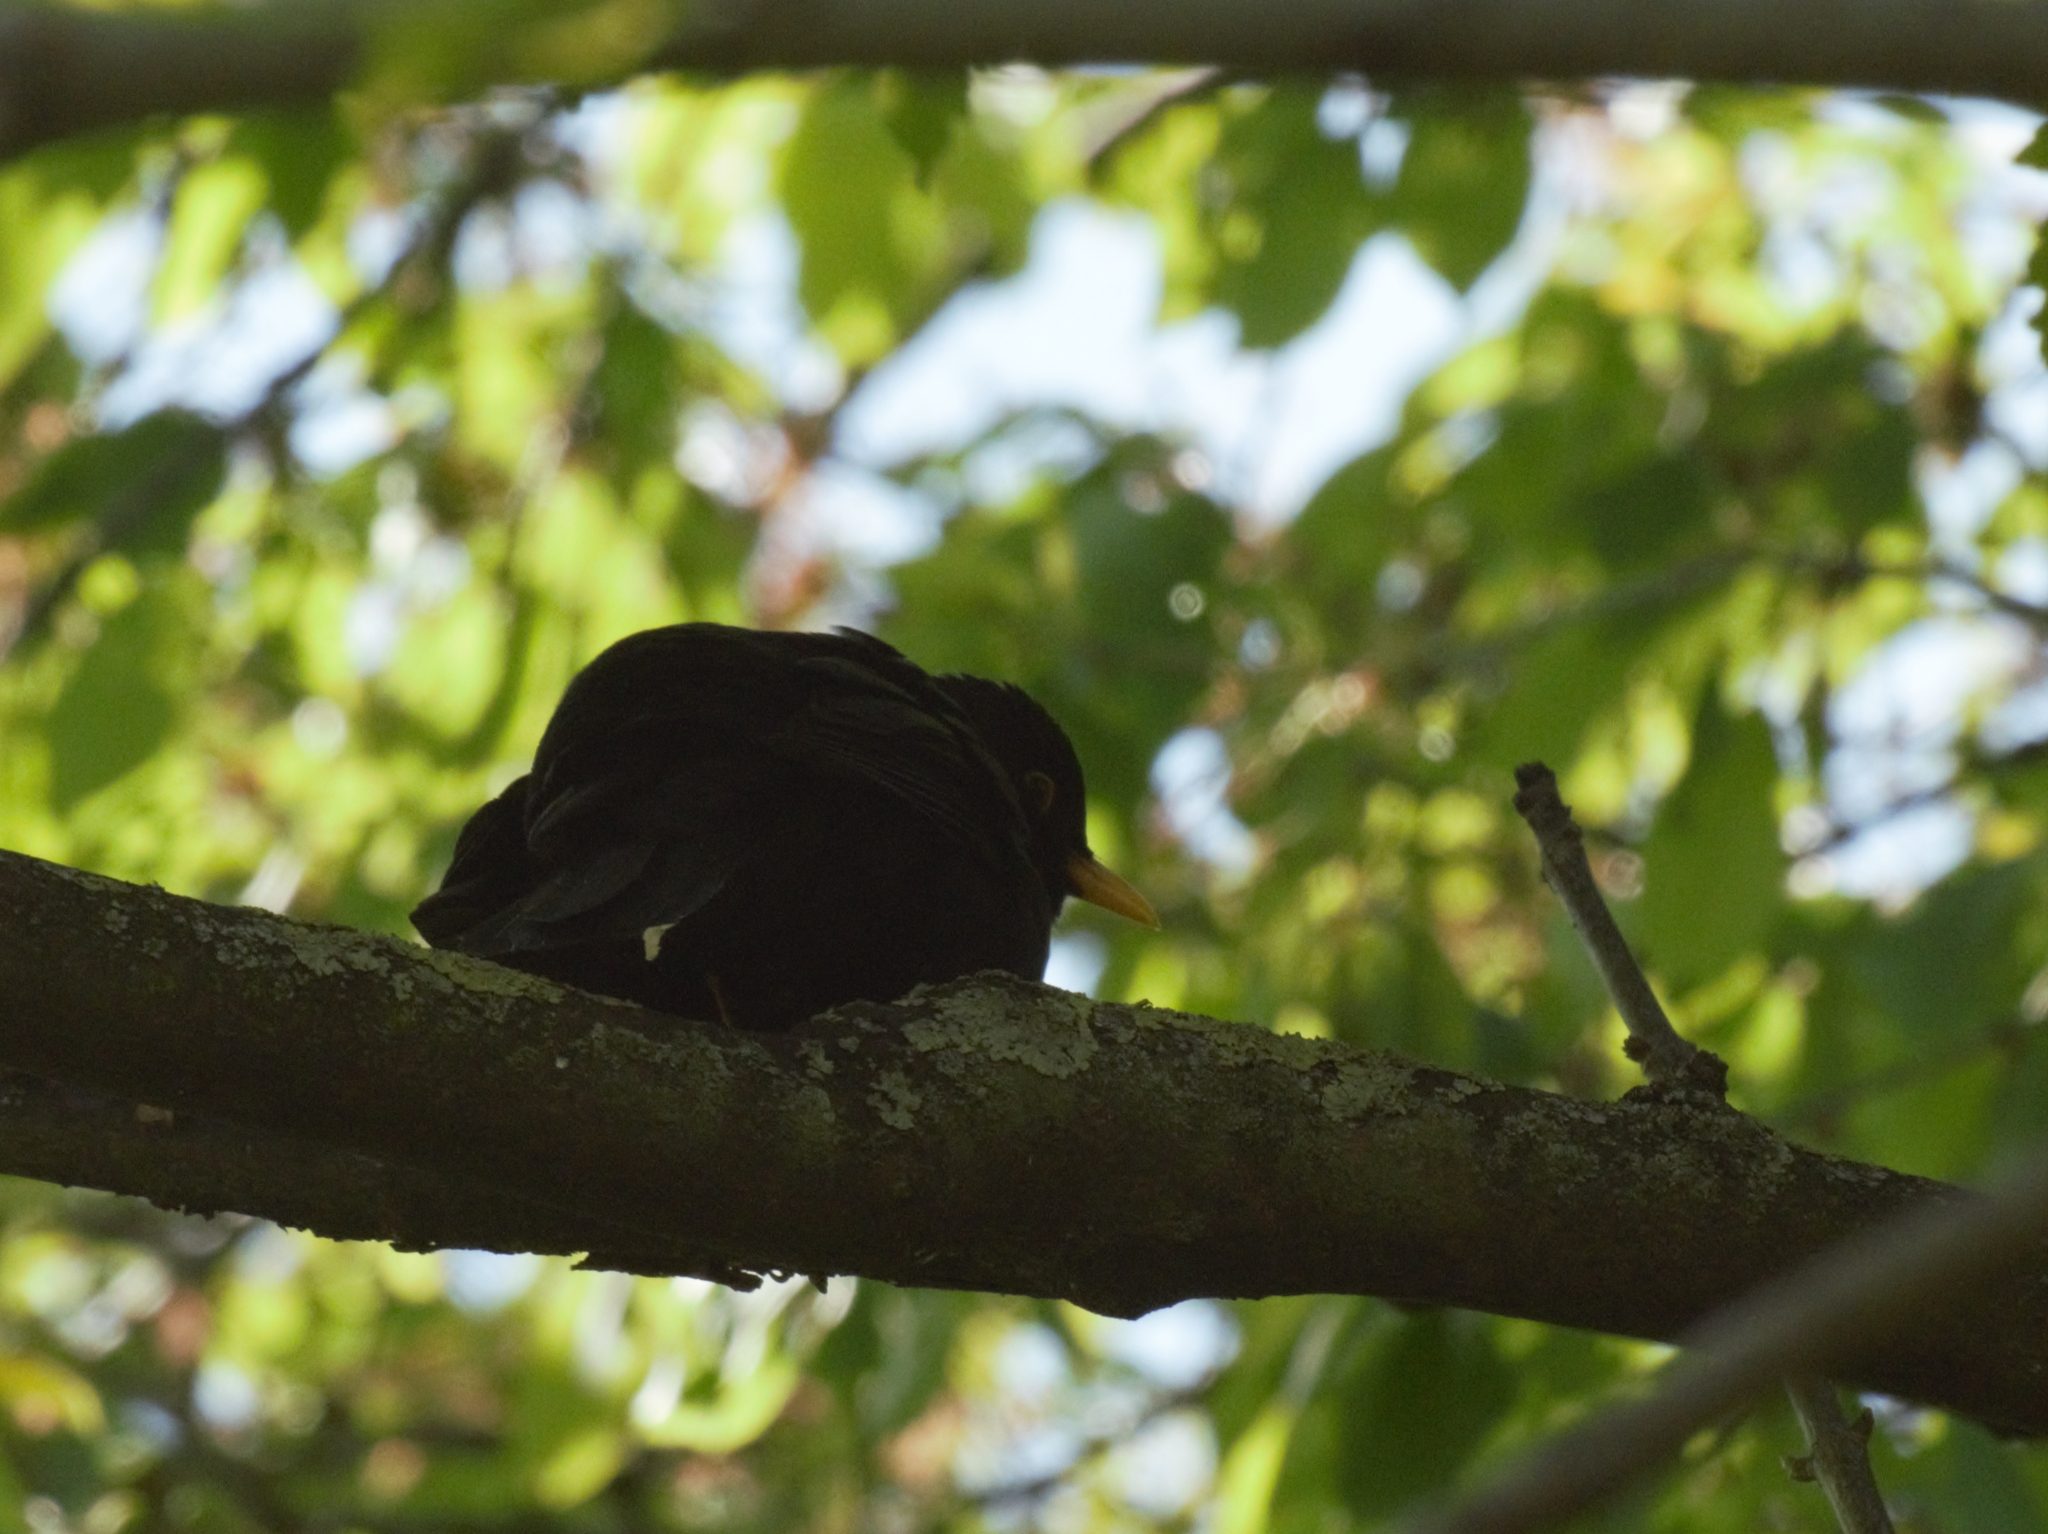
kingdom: Animalia
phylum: Chordata
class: Aves
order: Passeriformes
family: Turdidae
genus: Turdus
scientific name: Turdus merula
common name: Common blackbird
